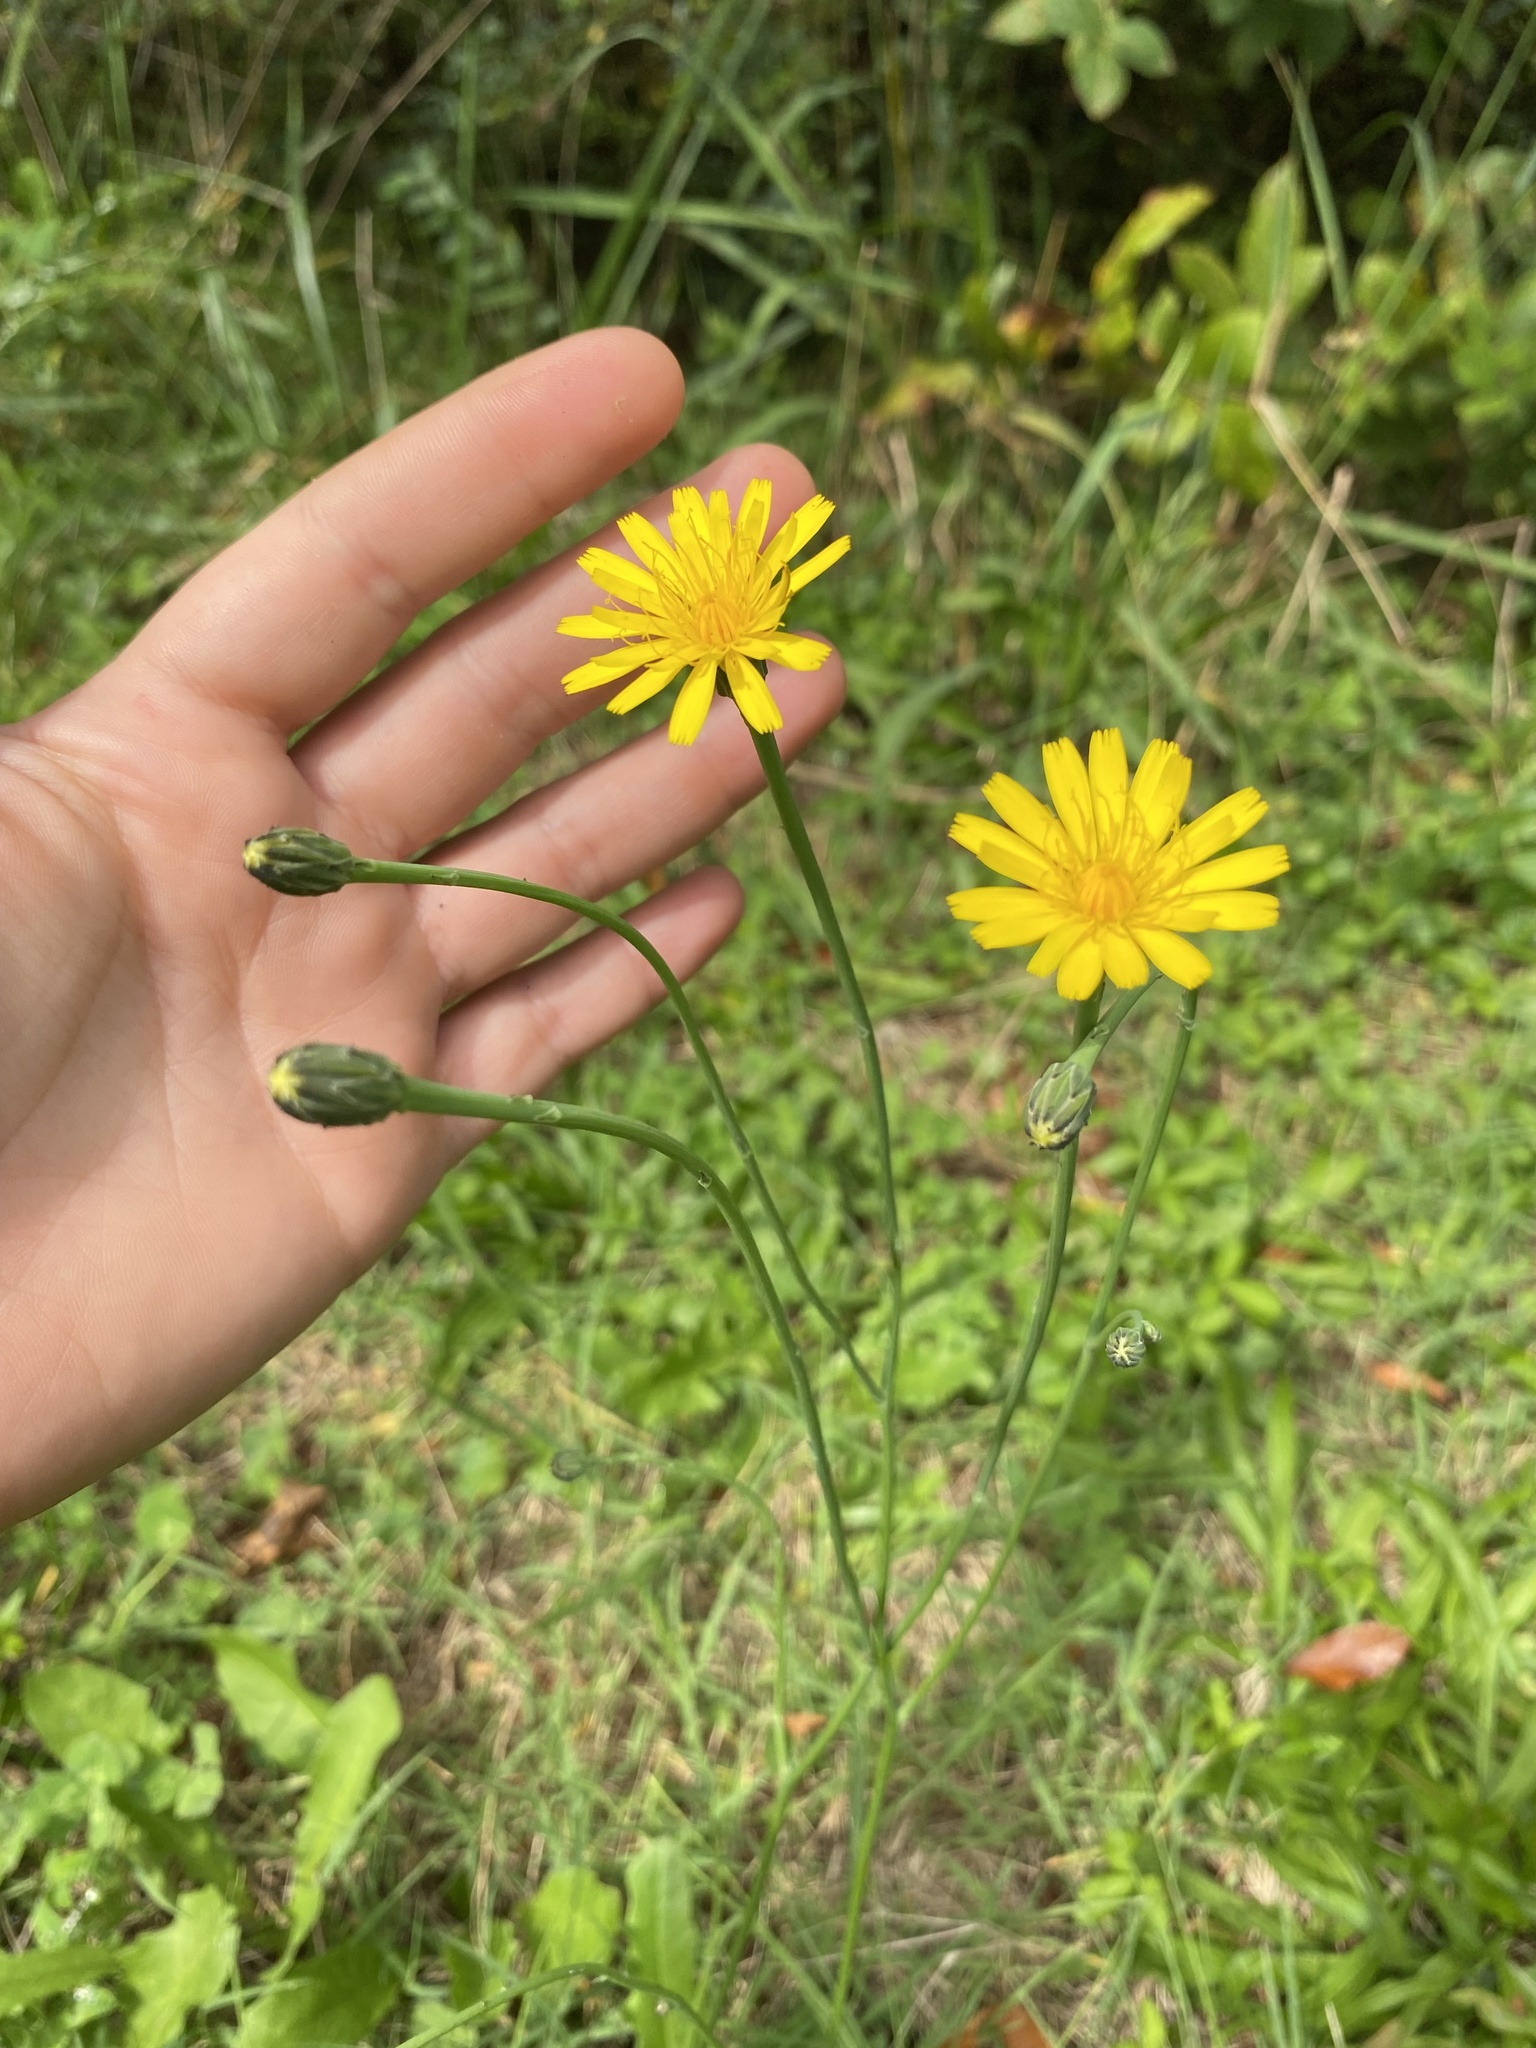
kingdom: Plantae
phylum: Tracheophyta
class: Magnoliopsida
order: Asterales
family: Asteraceae
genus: Hypochaeris
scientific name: Hypochaeris radicata
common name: Flatweed
